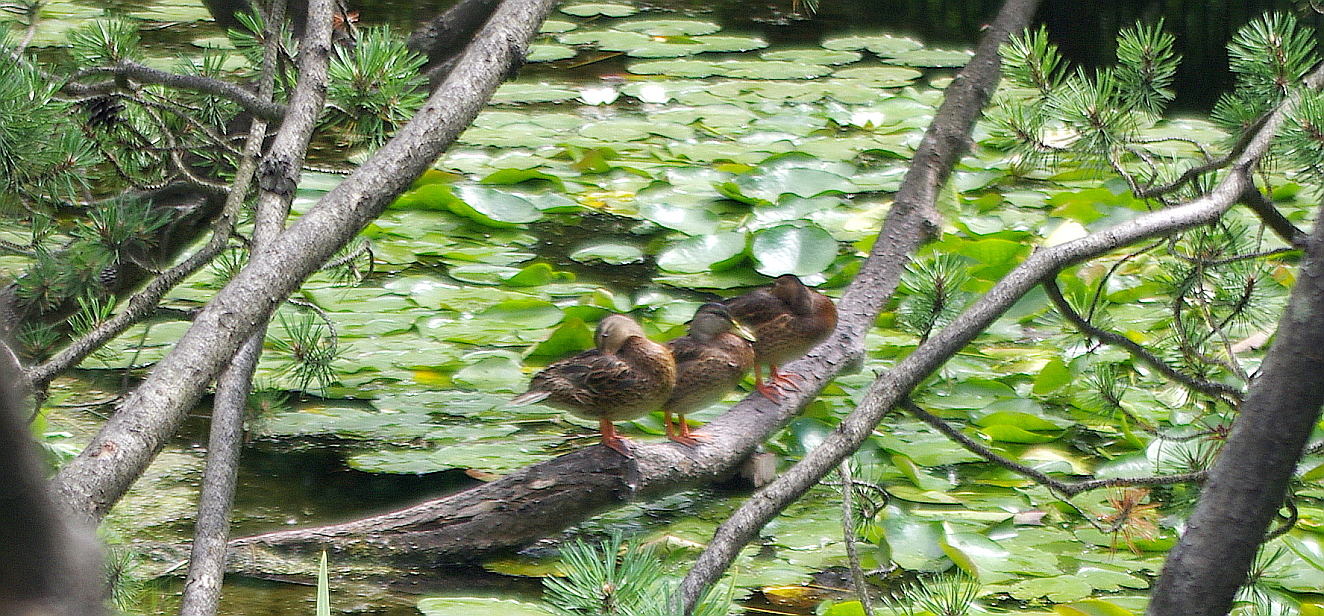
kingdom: Animalia
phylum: Chordata
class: Aves
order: Anseriformes
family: Anatidae
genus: Anas
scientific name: Anas platyrhynchos
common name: Mallard
